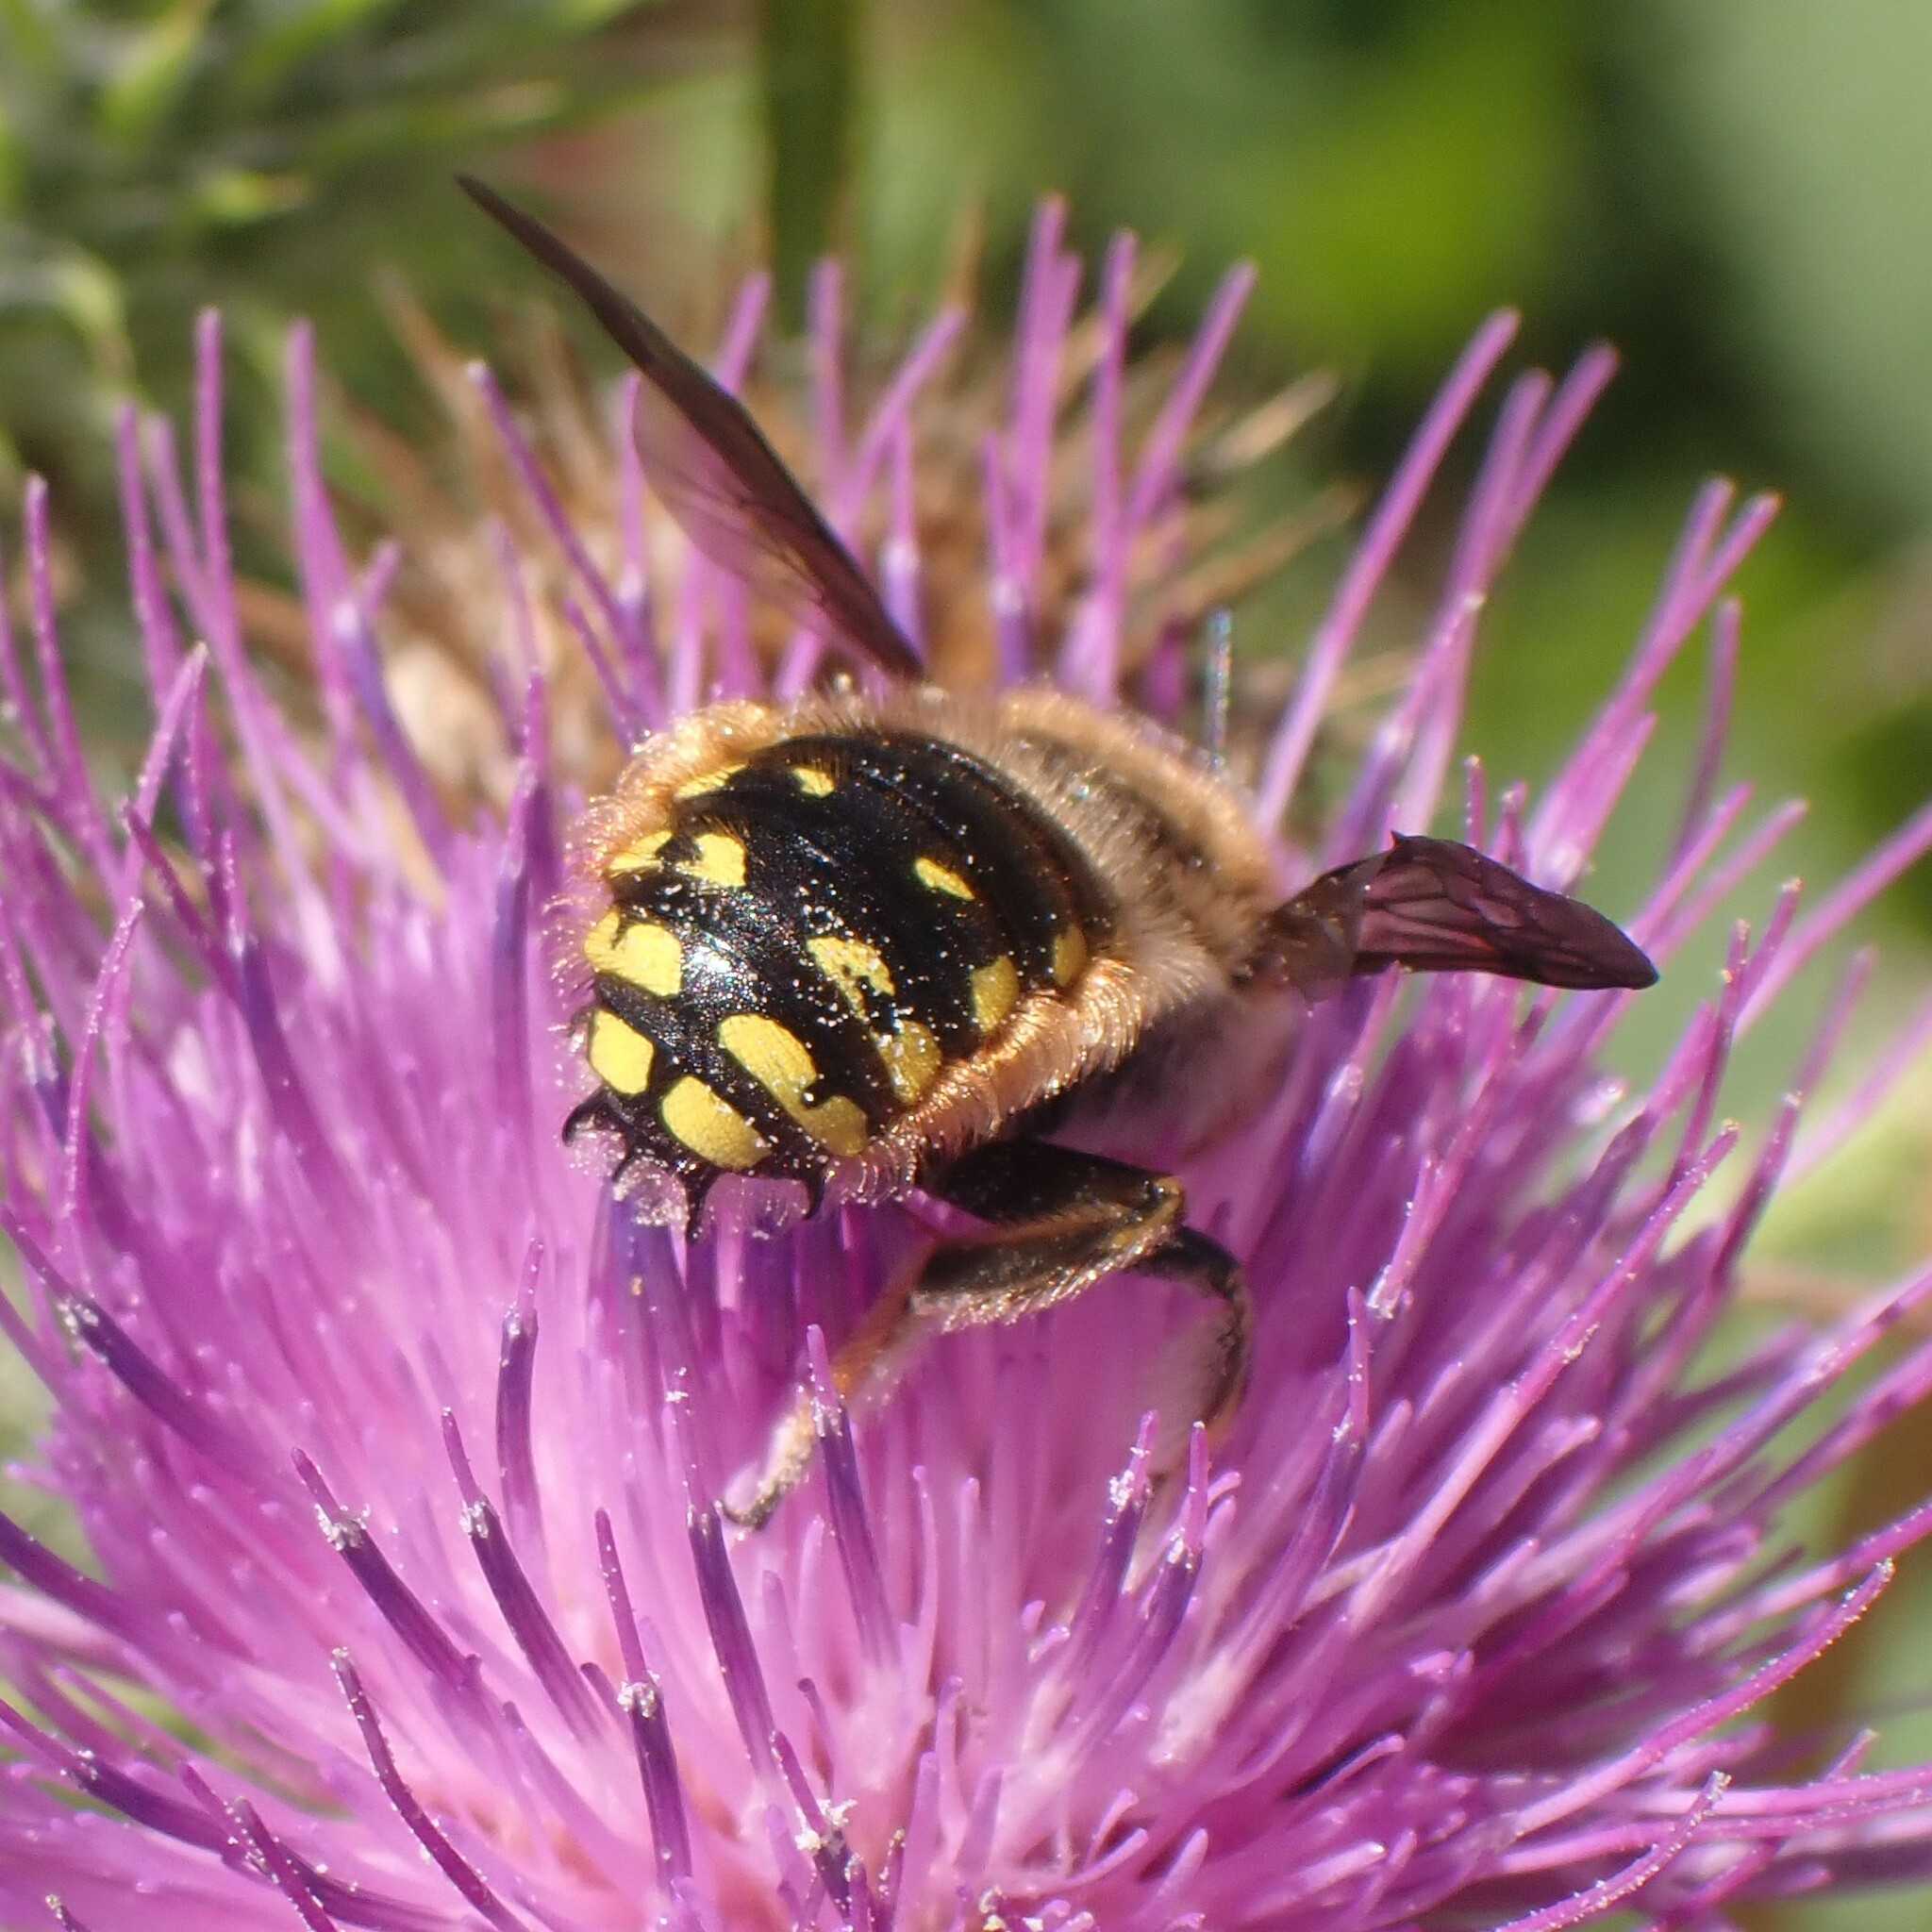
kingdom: Animalia
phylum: Arthropoda
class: Insecta
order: Hymenoptera
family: Megachilidae
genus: Anthidium
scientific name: Anthidium manicatum
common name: Wool carder bee
